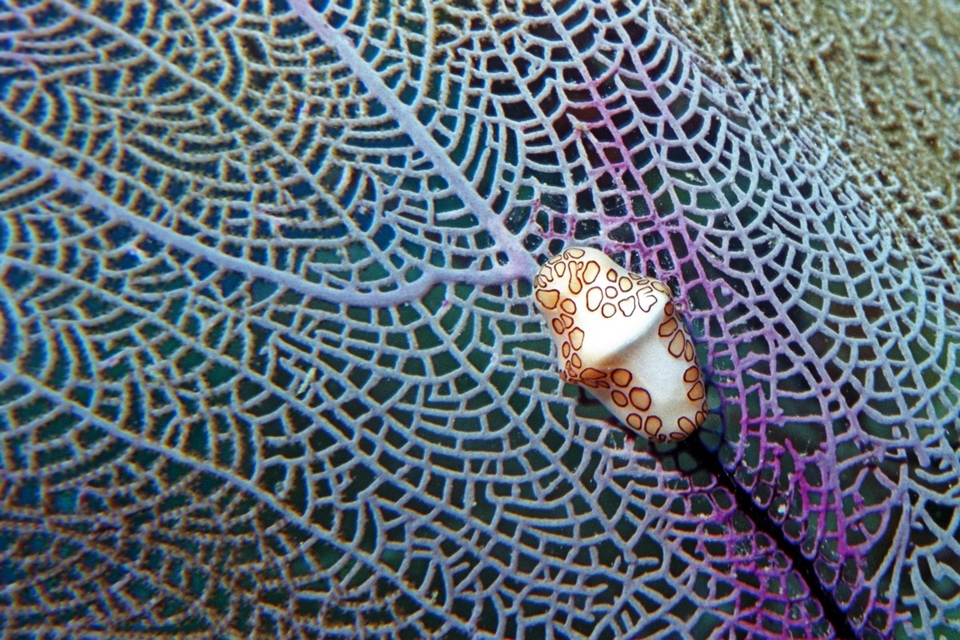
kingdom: Animalia
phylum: Mollusca
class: Gastropoda
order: Littorinimorpha
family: Ovulidae
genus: Cyphoma
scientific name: Cyphoma gibbosum
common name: Flamingo tongue
